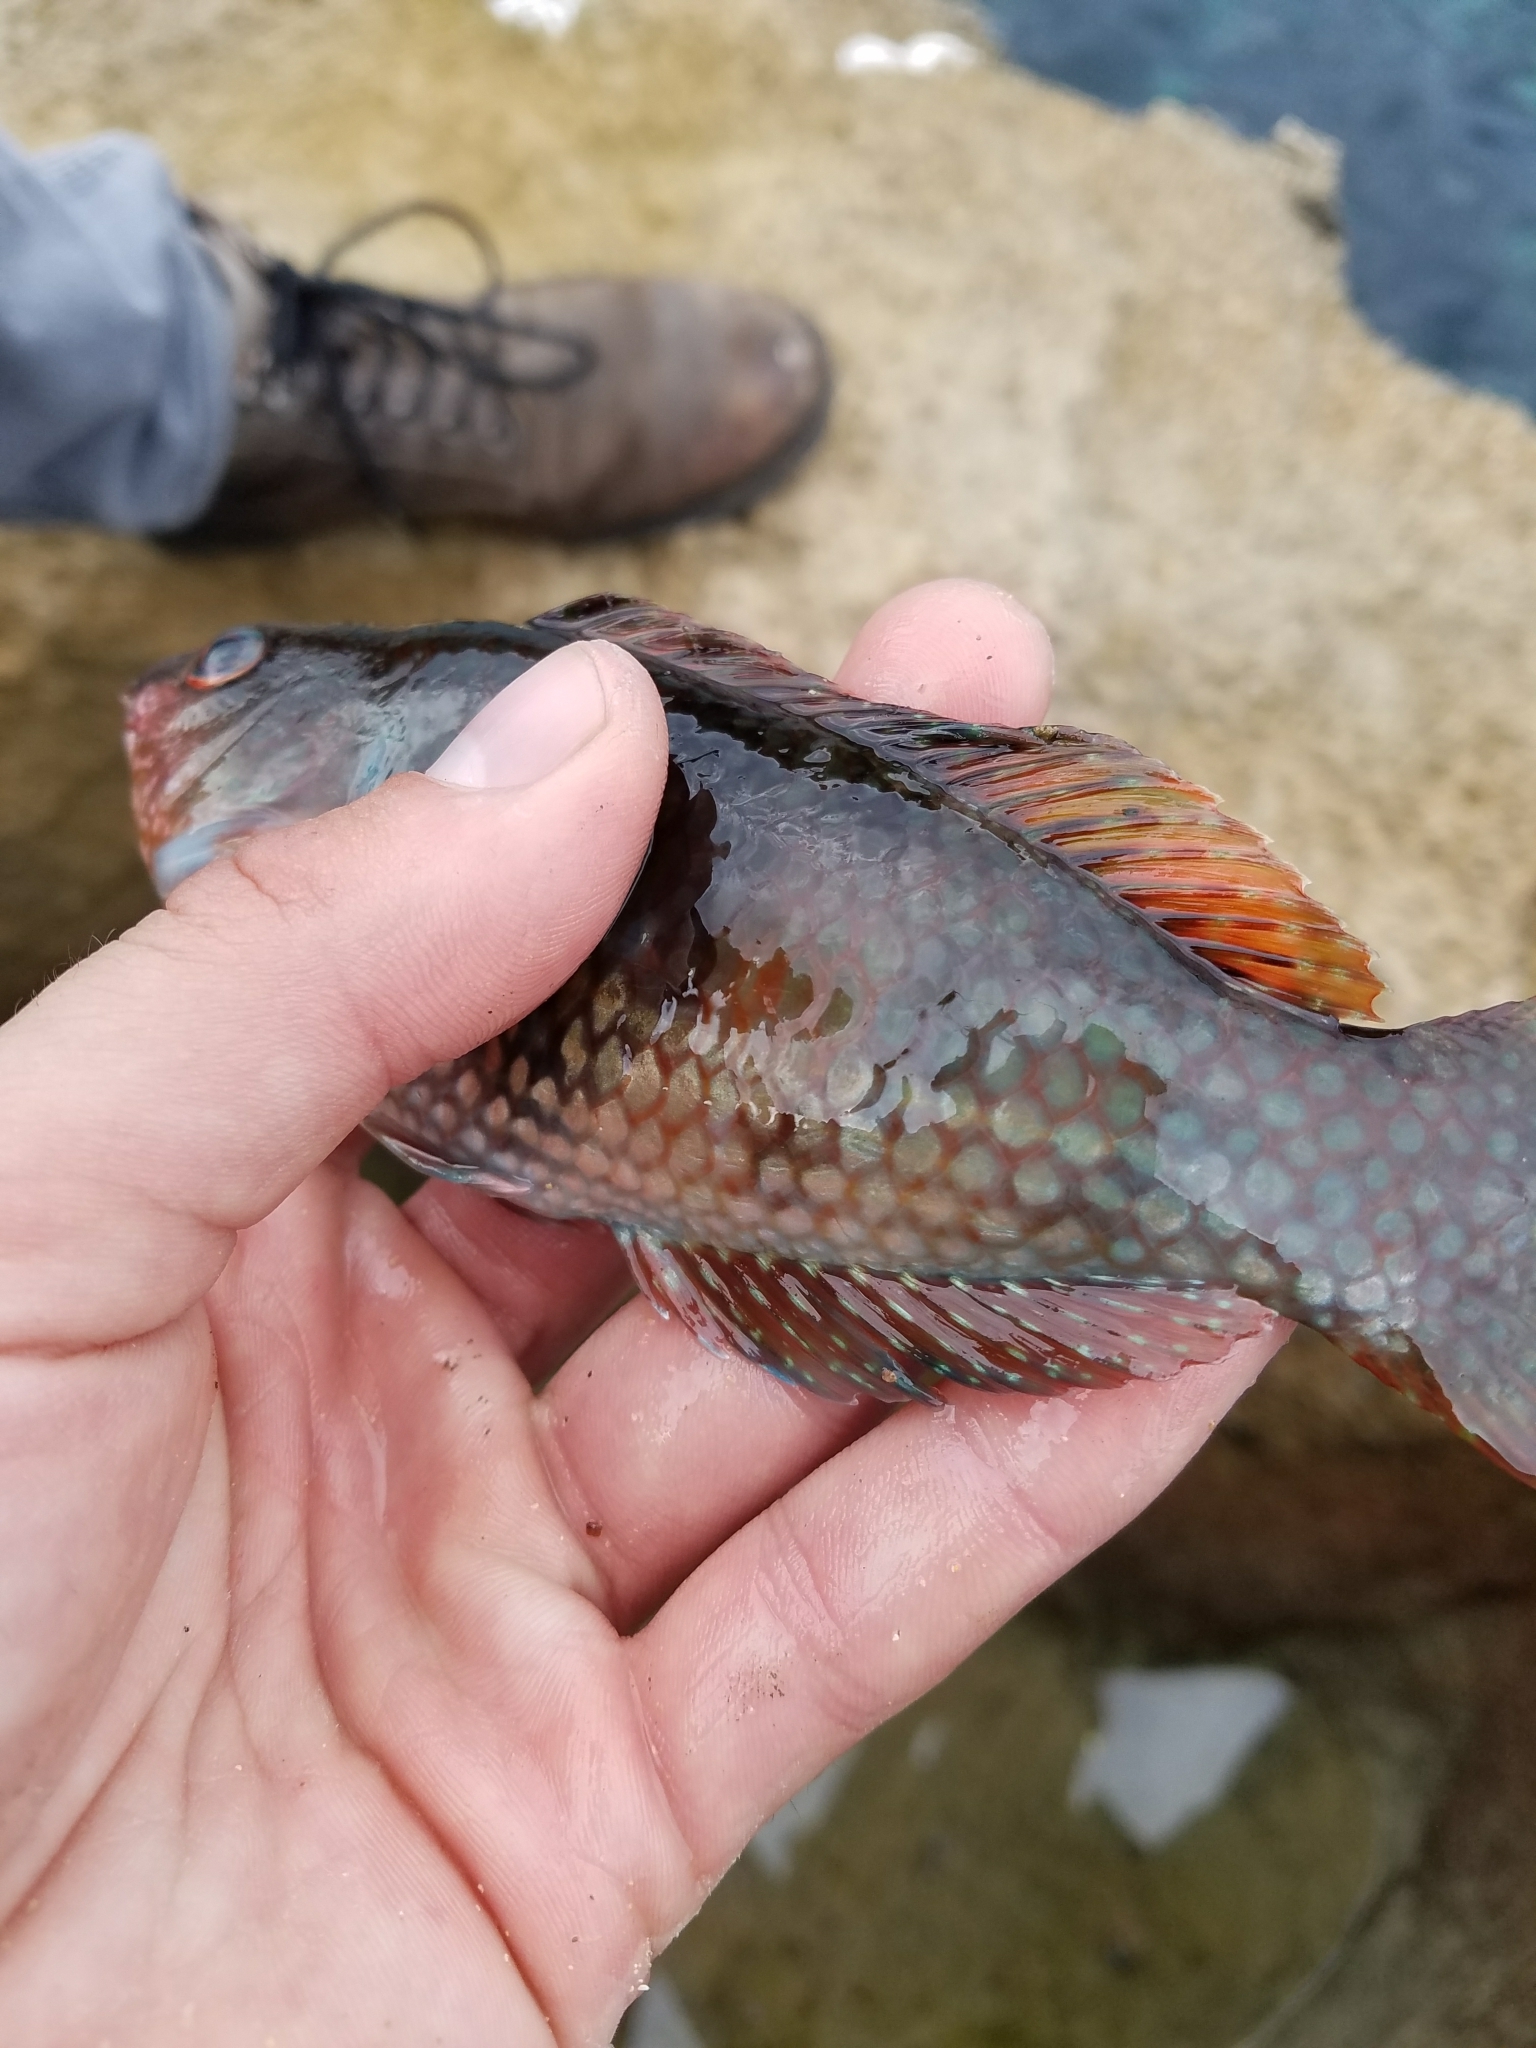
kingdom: Animalia
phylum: Chordata
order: Perciformes
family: Labridae
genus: Notolabrus
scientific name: Notolabrus tetricus
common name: Blue-throated parrotfish
